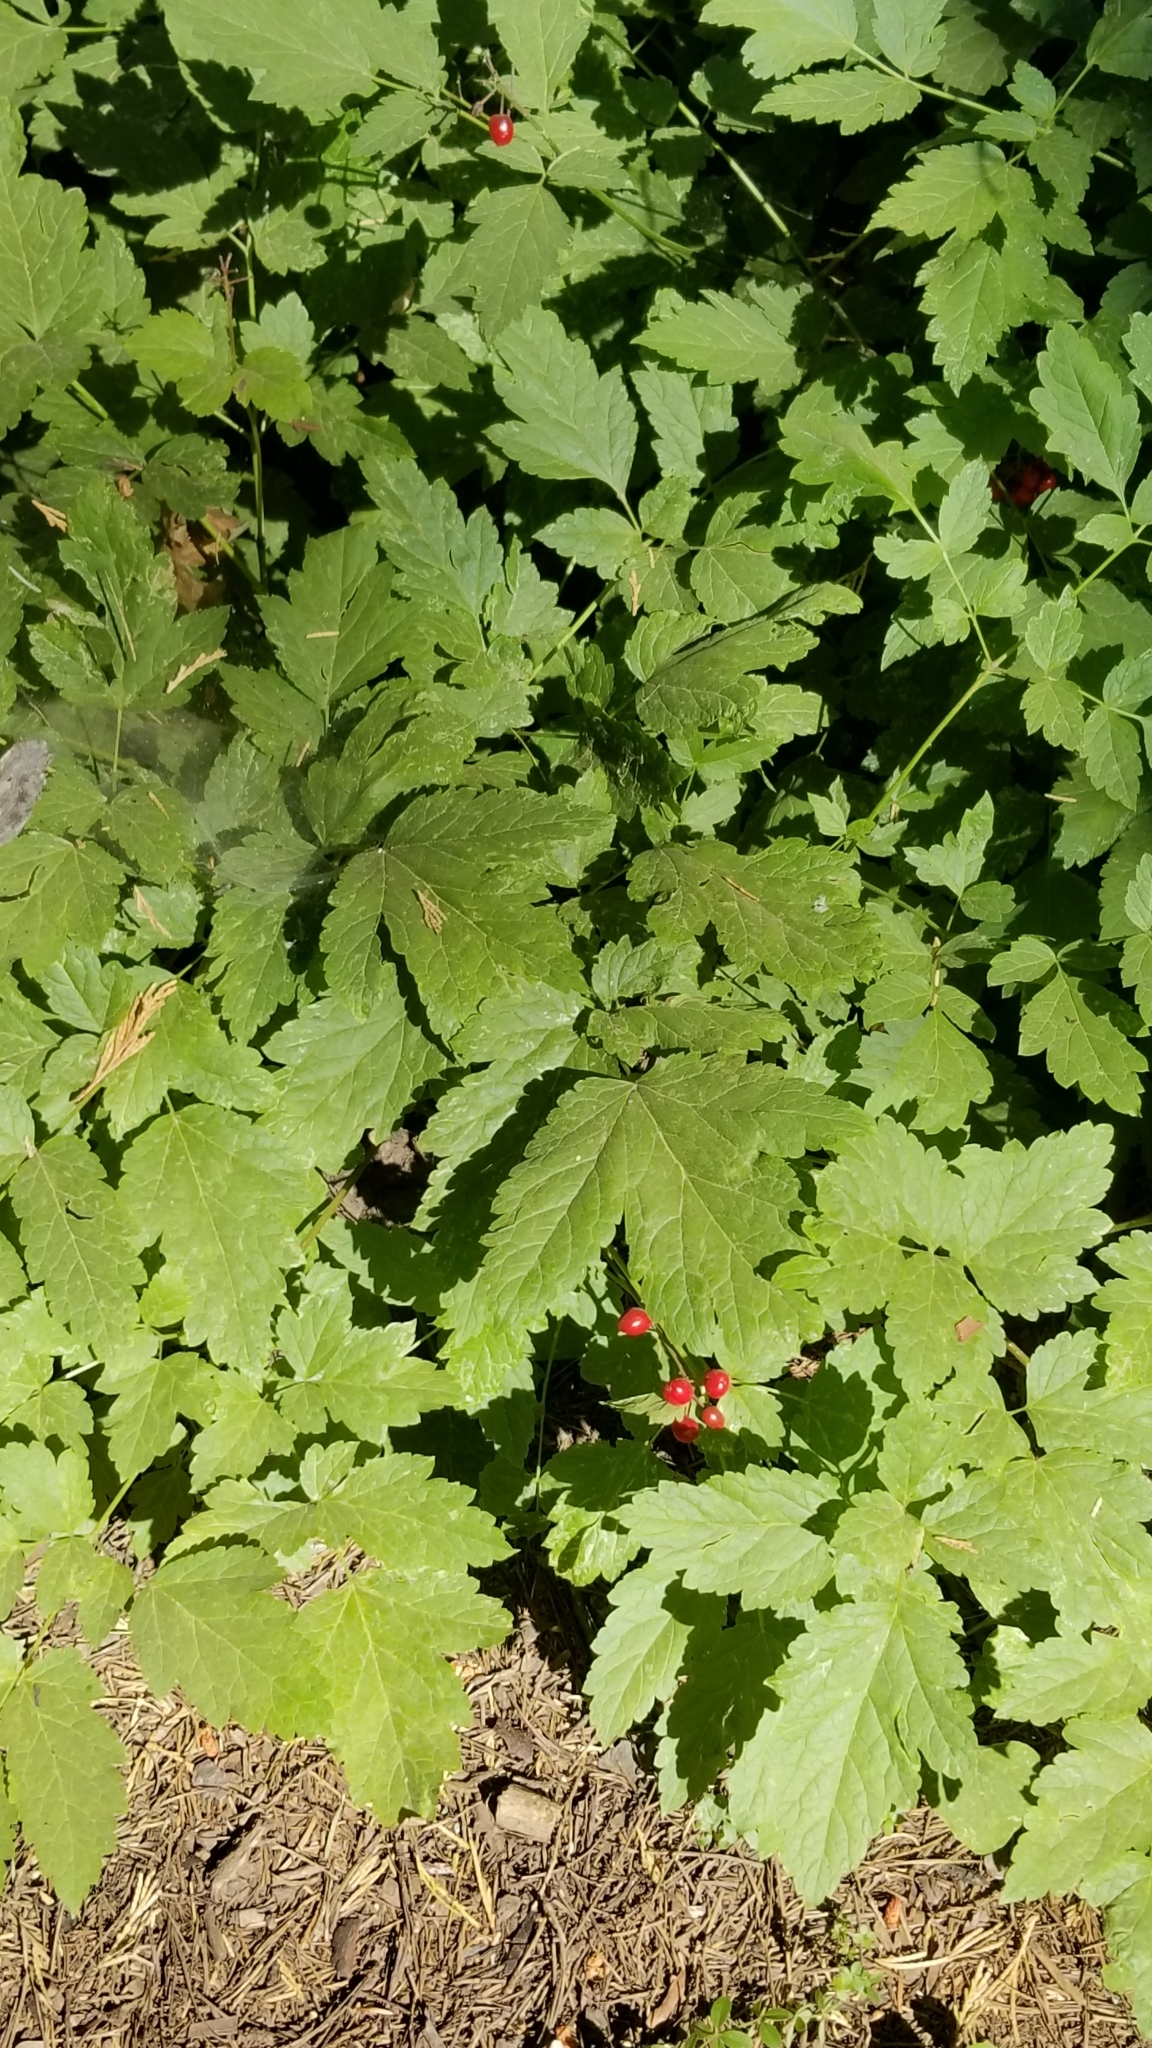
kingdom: Plantae
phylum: Tracheophyta
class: Magnoliopsida
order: Ranunculales
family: Ranunculaceae
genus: Actaea
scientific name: Actaea rubra
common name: Red baneberry
